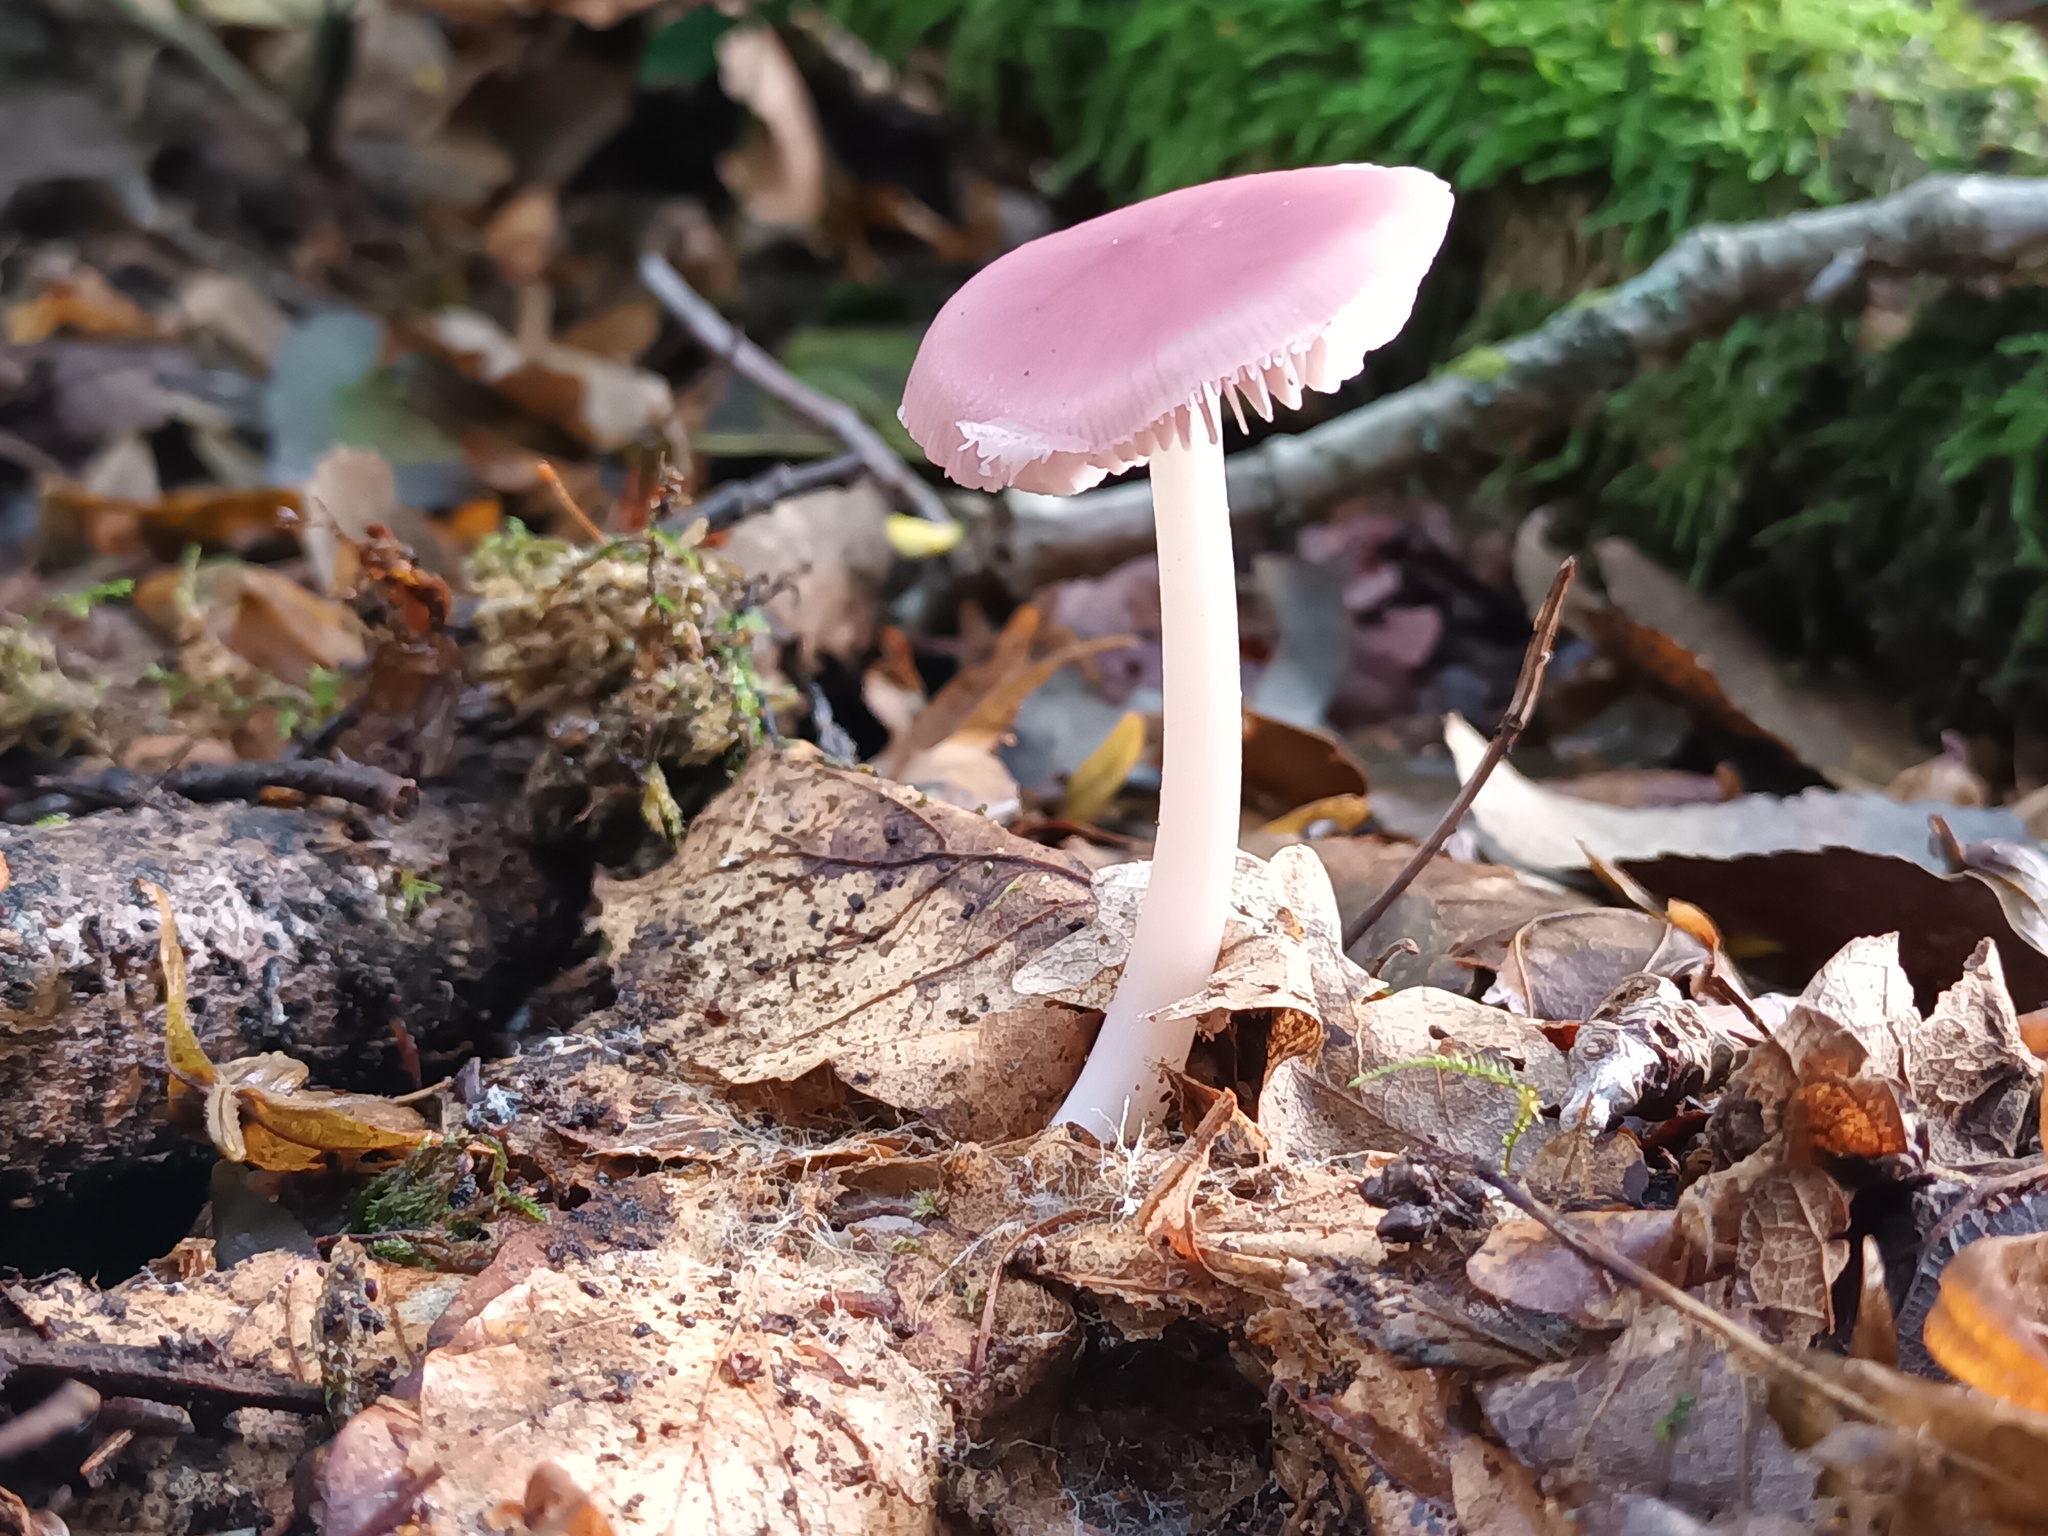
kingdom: Fungi
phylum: Basidiomycota
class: Agaricomycetes
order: Agaricales
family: Mycenaceae
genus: Mycena
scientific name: Mycena rosea
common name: Rosy bonnet
